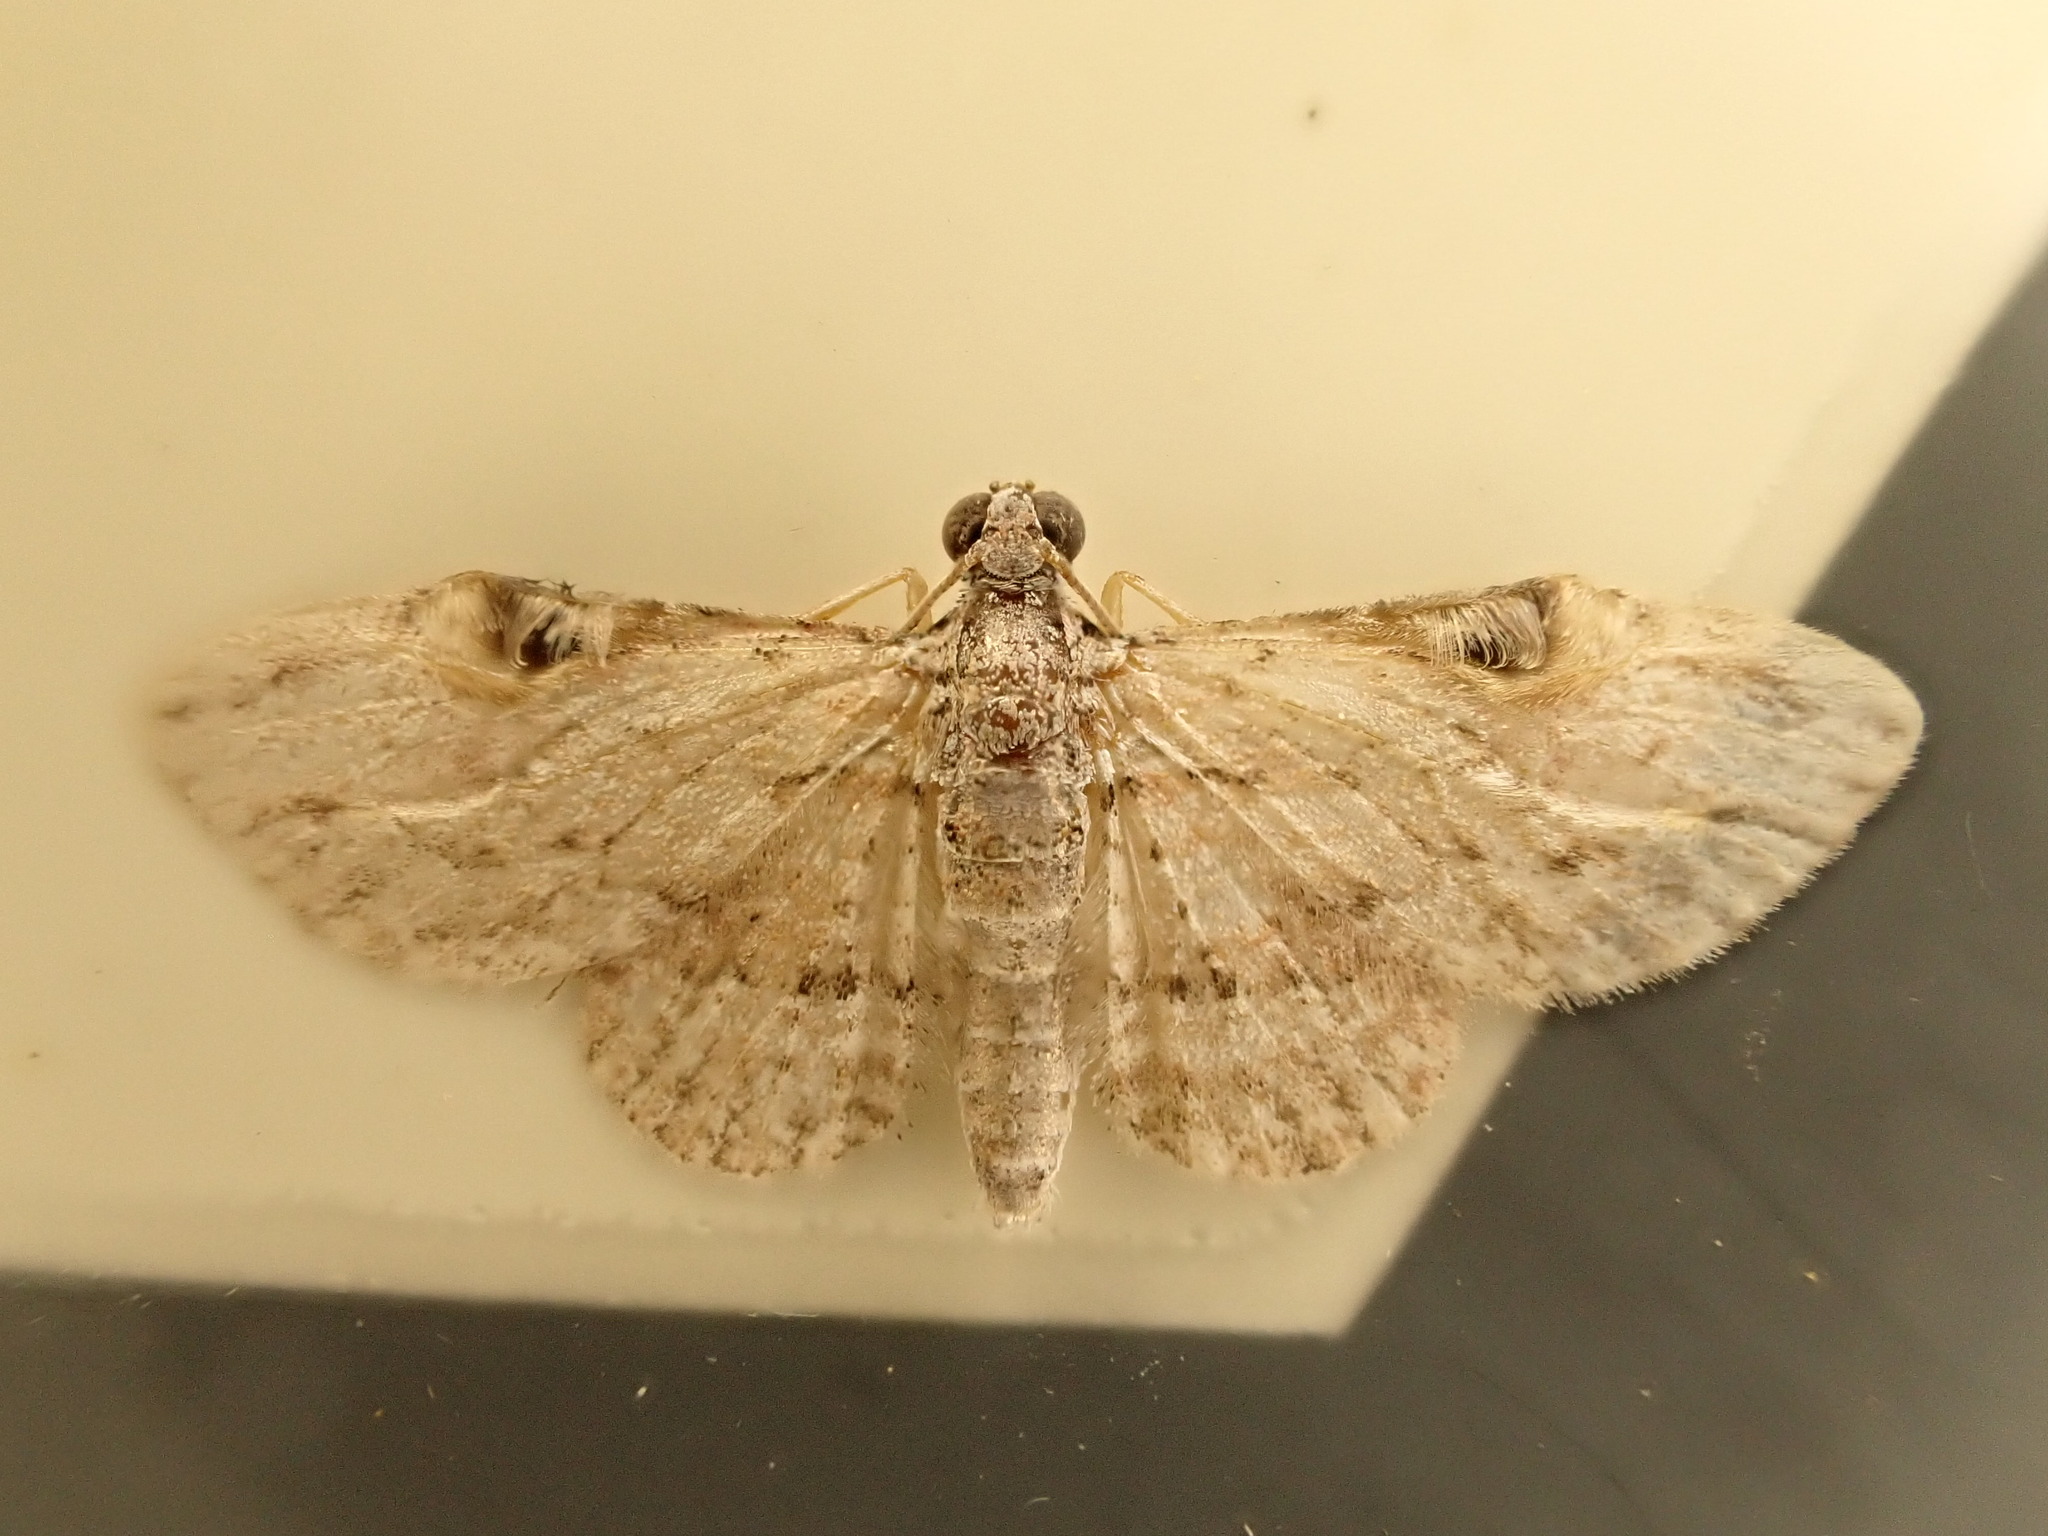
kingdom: Animalia
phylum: Arthropoda
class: Insecta
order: Lepidoptera
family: Geometridae
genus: Chloroclystis
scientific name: Chloroclystis insigillata
